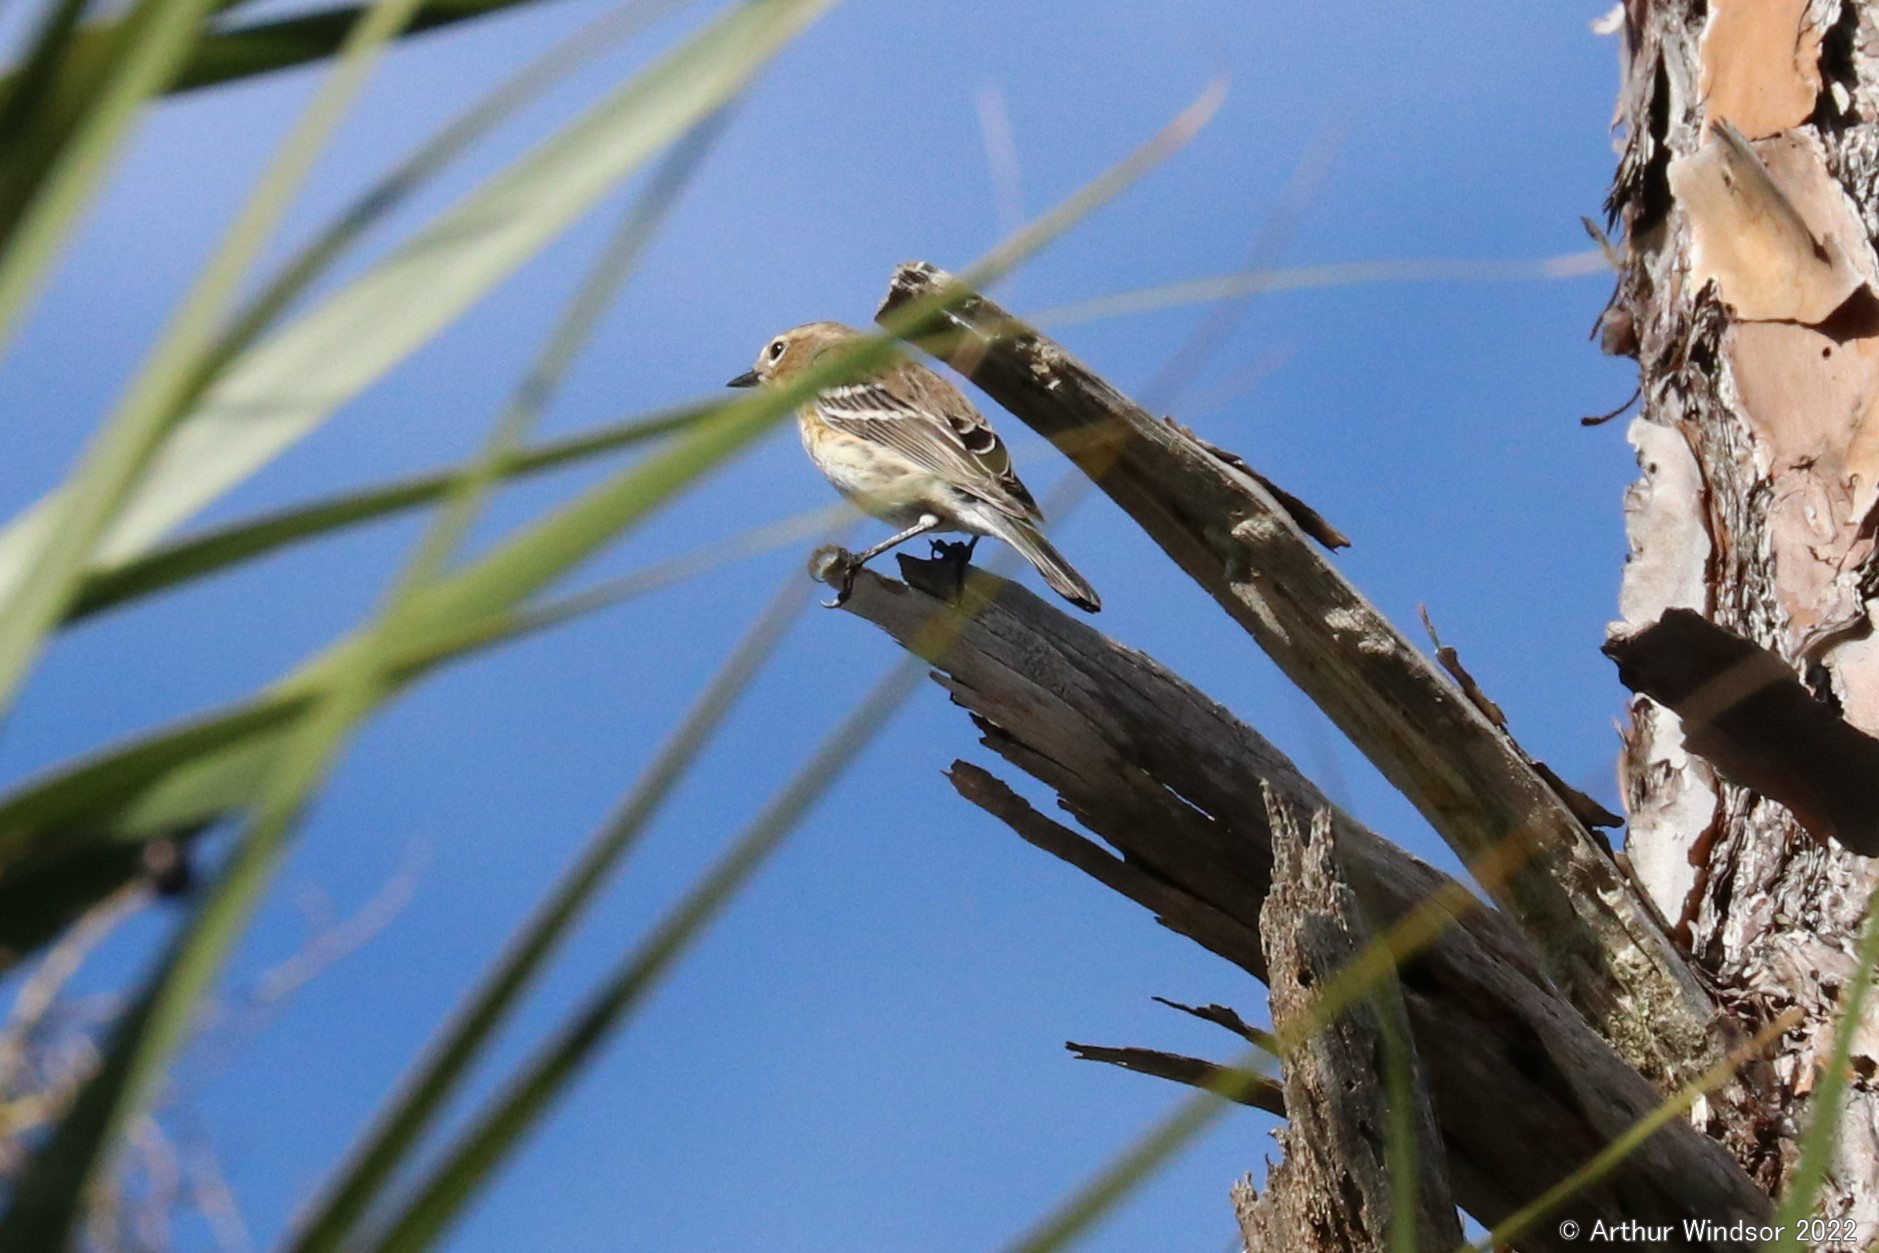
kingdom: Animalia
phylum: Chordata
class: Aves
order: Passeriformes
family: Parulidae
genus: Setophaga
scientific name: Setophaga pinus
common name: Pine warbler
